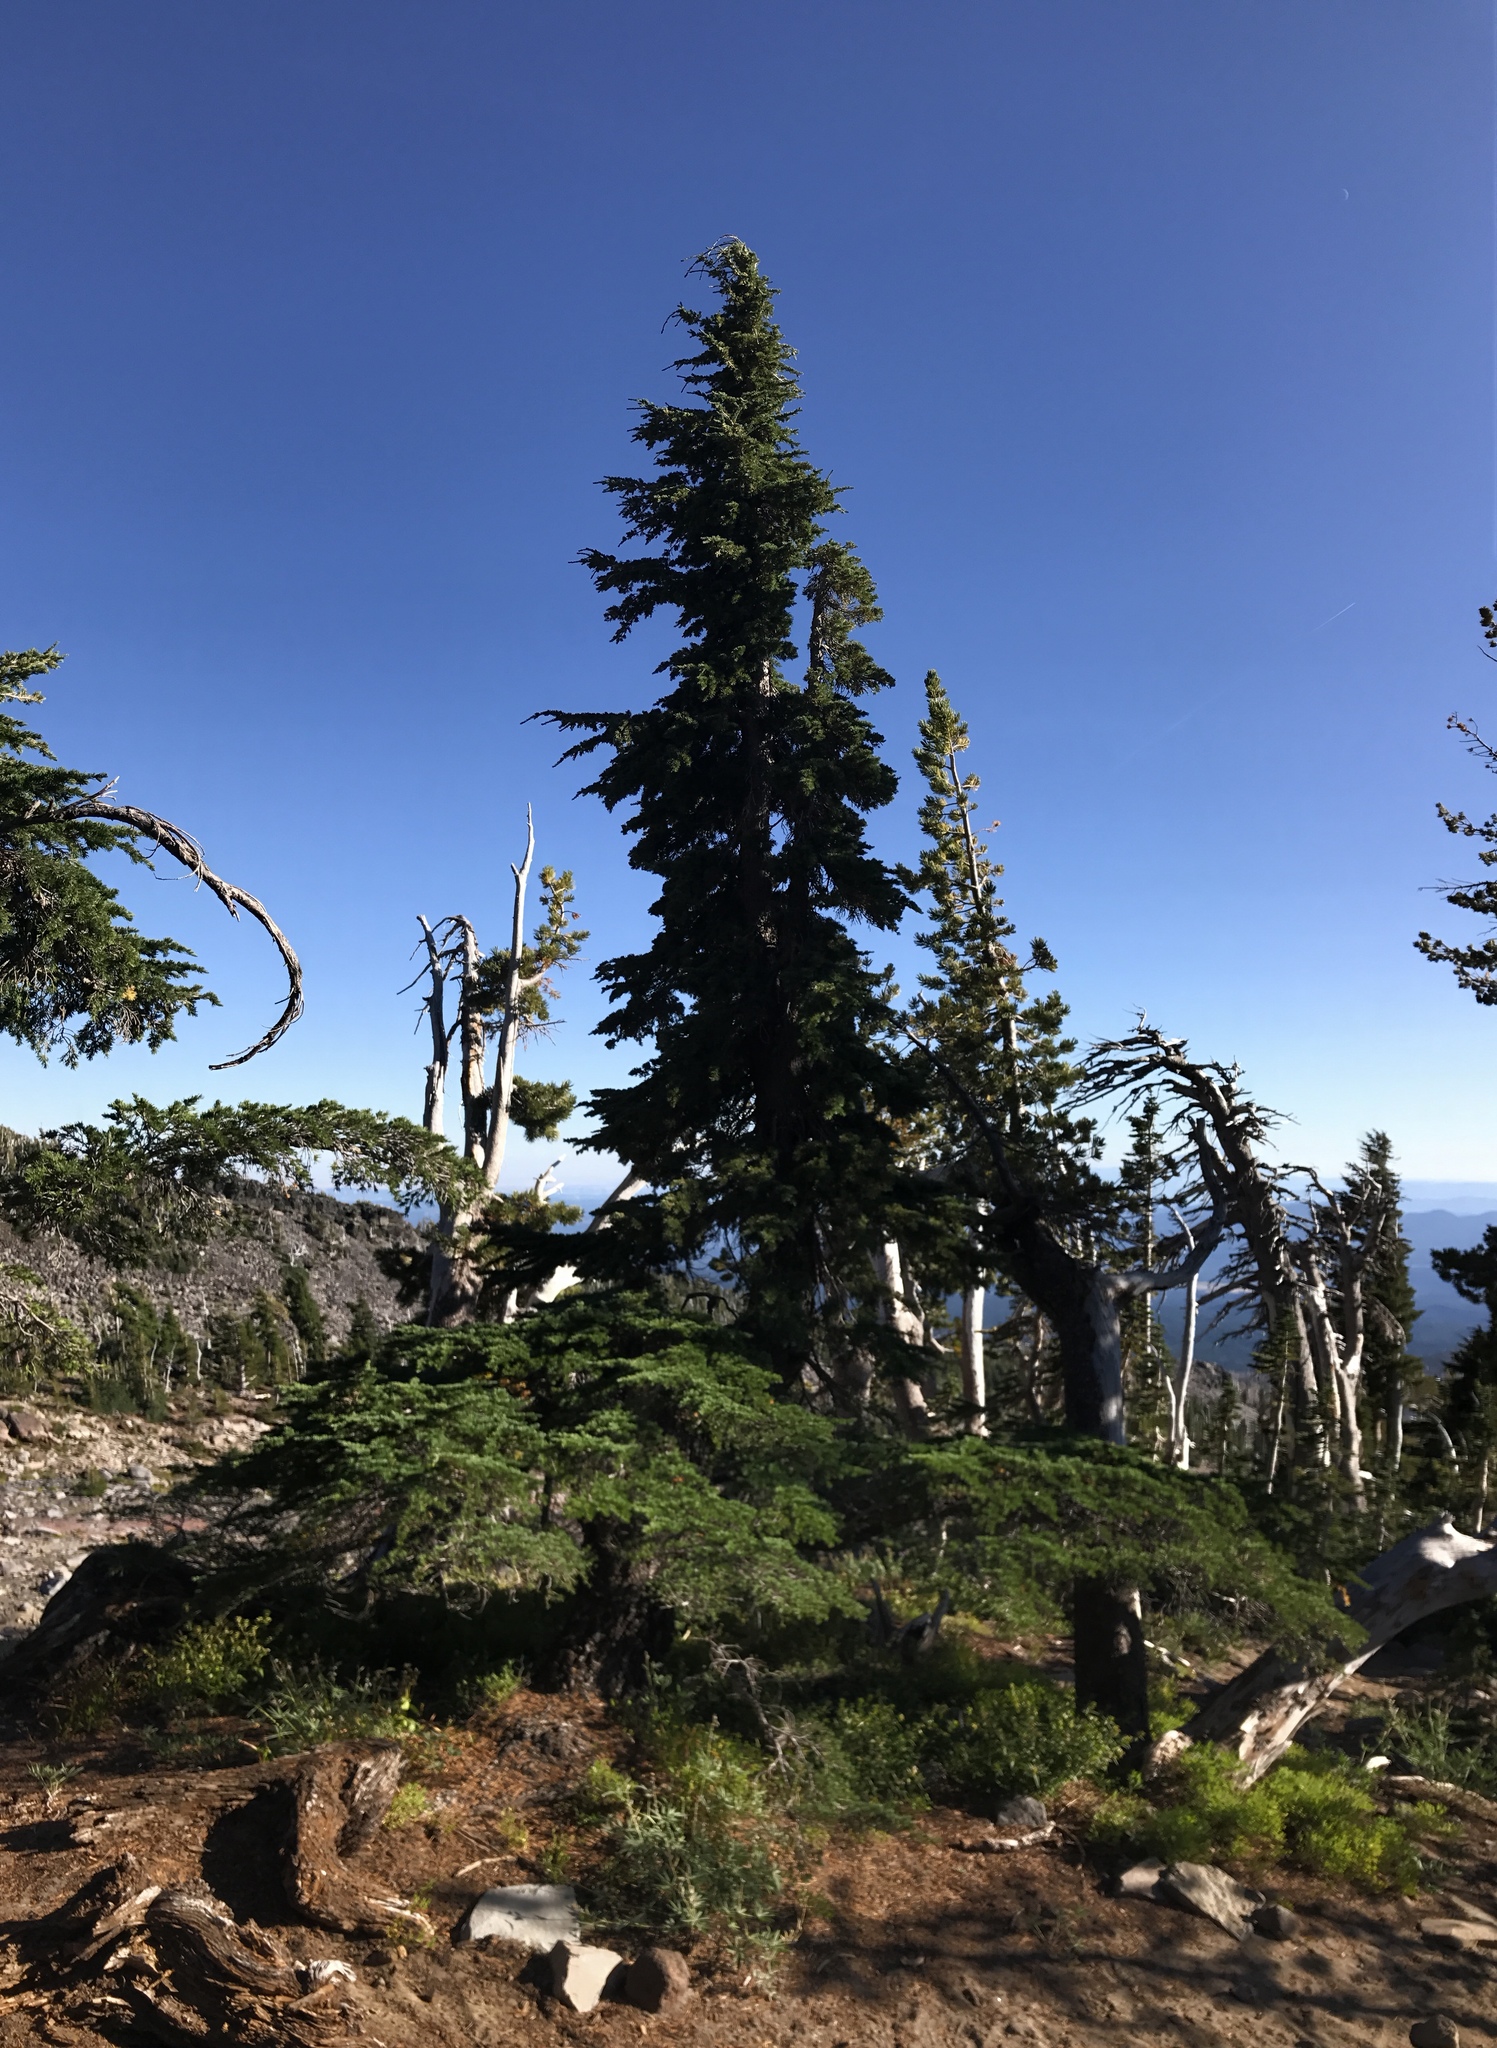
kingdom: Plantae
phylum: Tracheophyta
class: Pinopsida
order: Pinales
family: Pinaceae
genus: Tsuga
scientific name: Tsuga mertensiana
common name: Mountain hemlock
